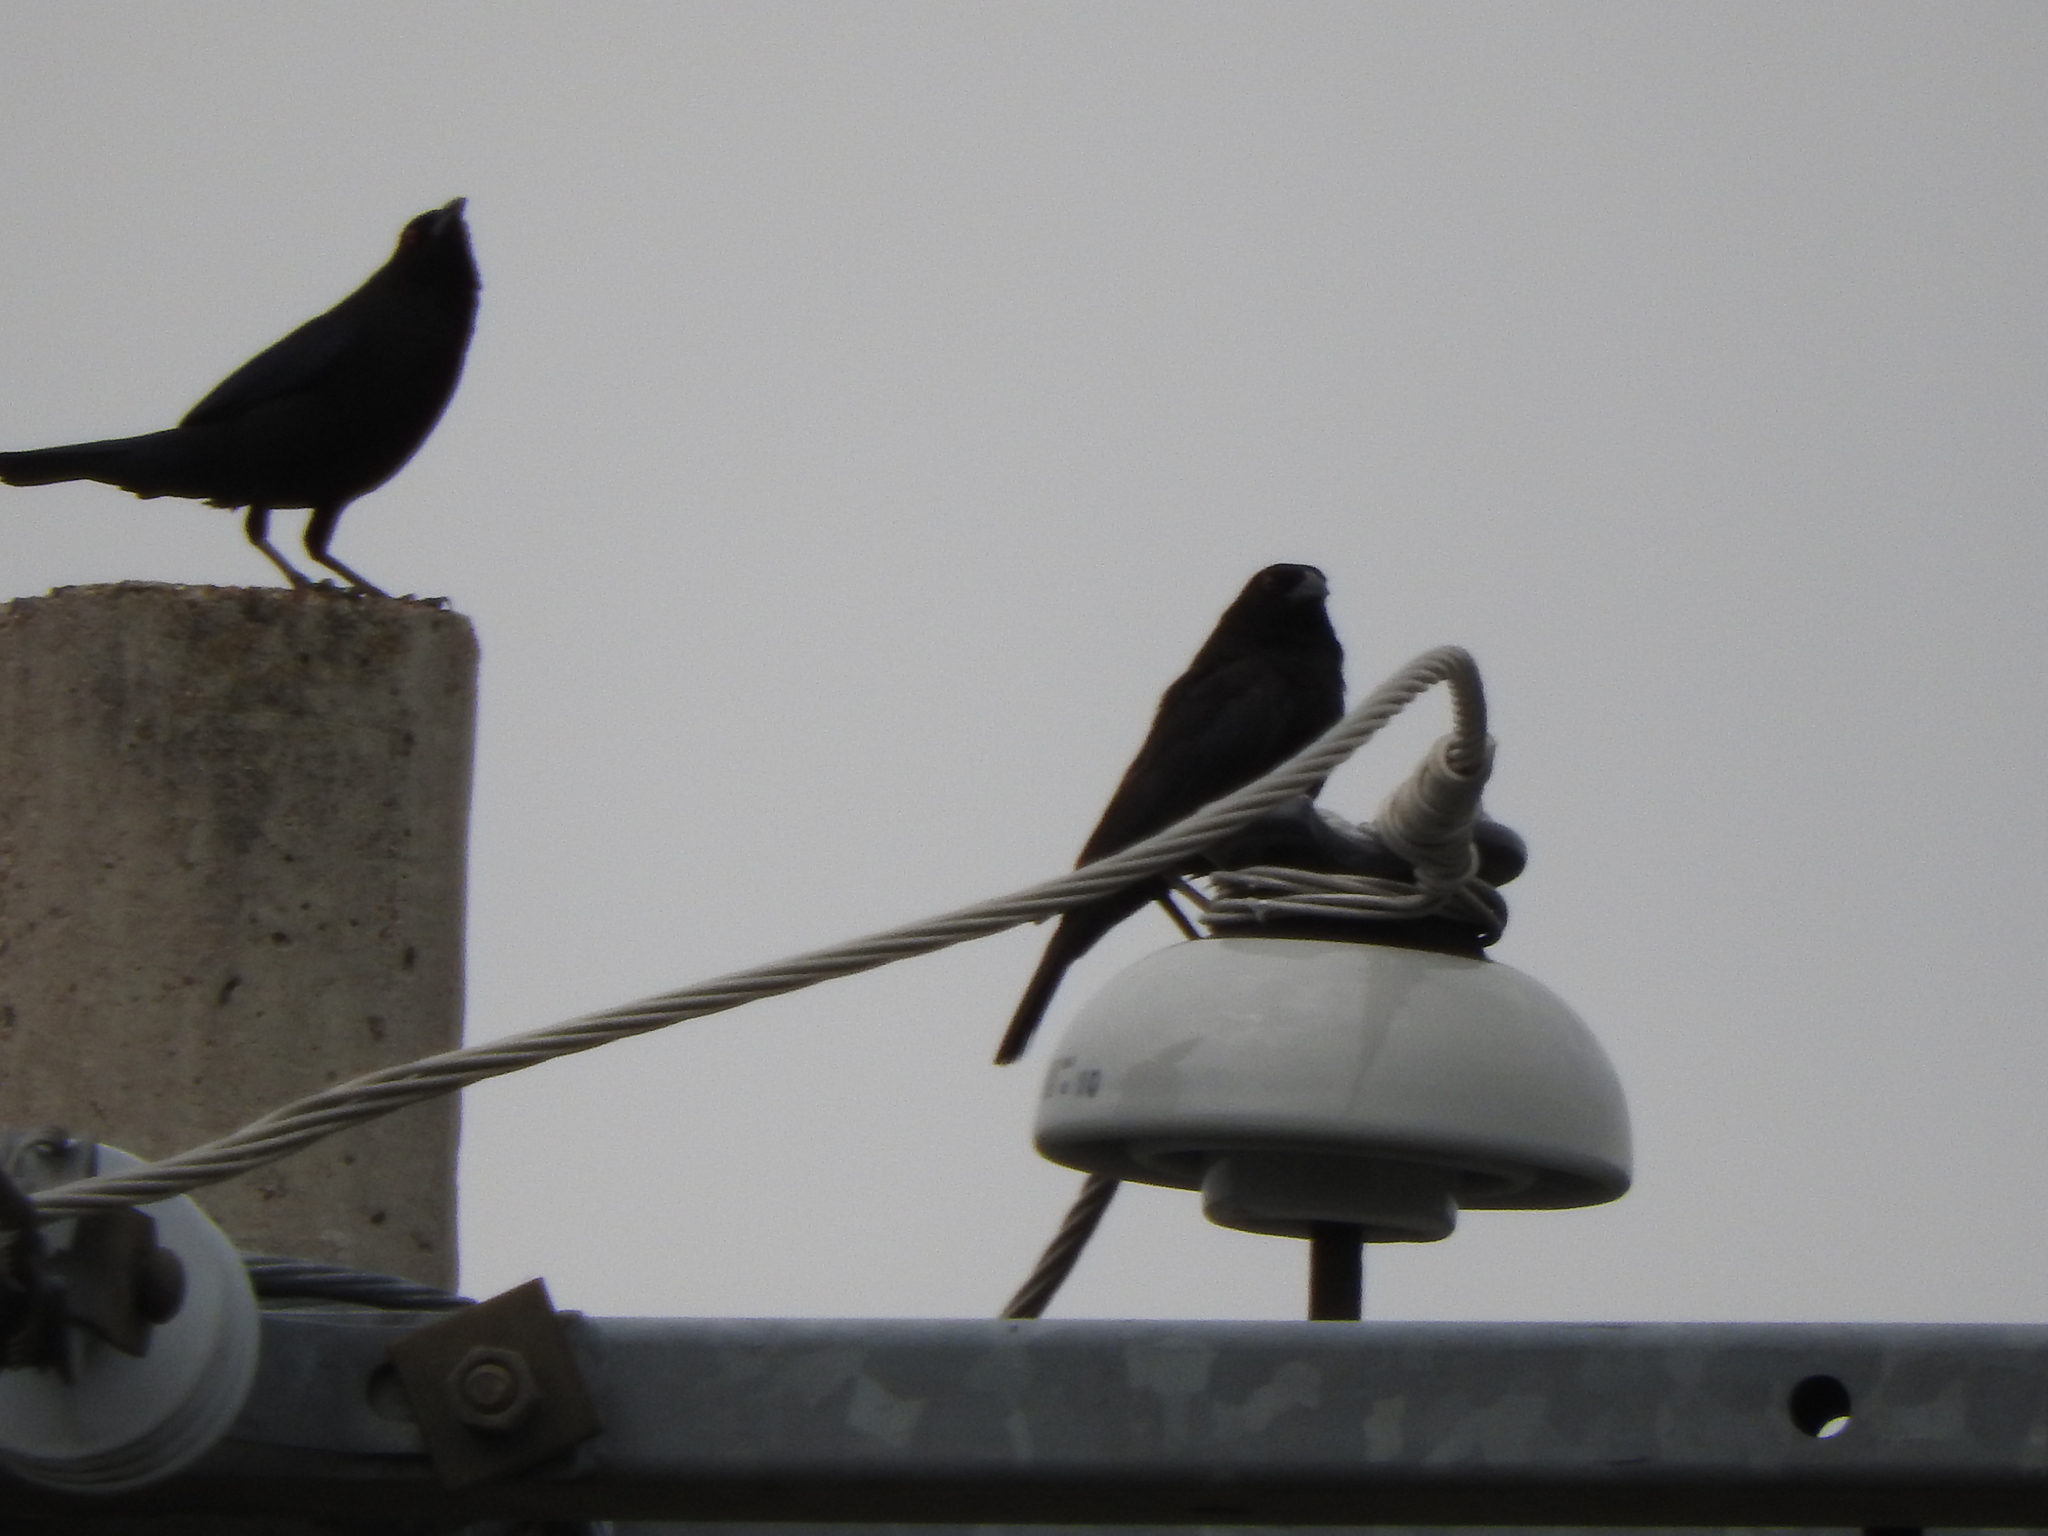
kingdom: Animalia
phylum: Chordata
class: Aves
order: Passeriformes
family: Icteridae
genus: Molothrus
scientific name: Molothrus aeneus
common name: Bronzed cowbird
